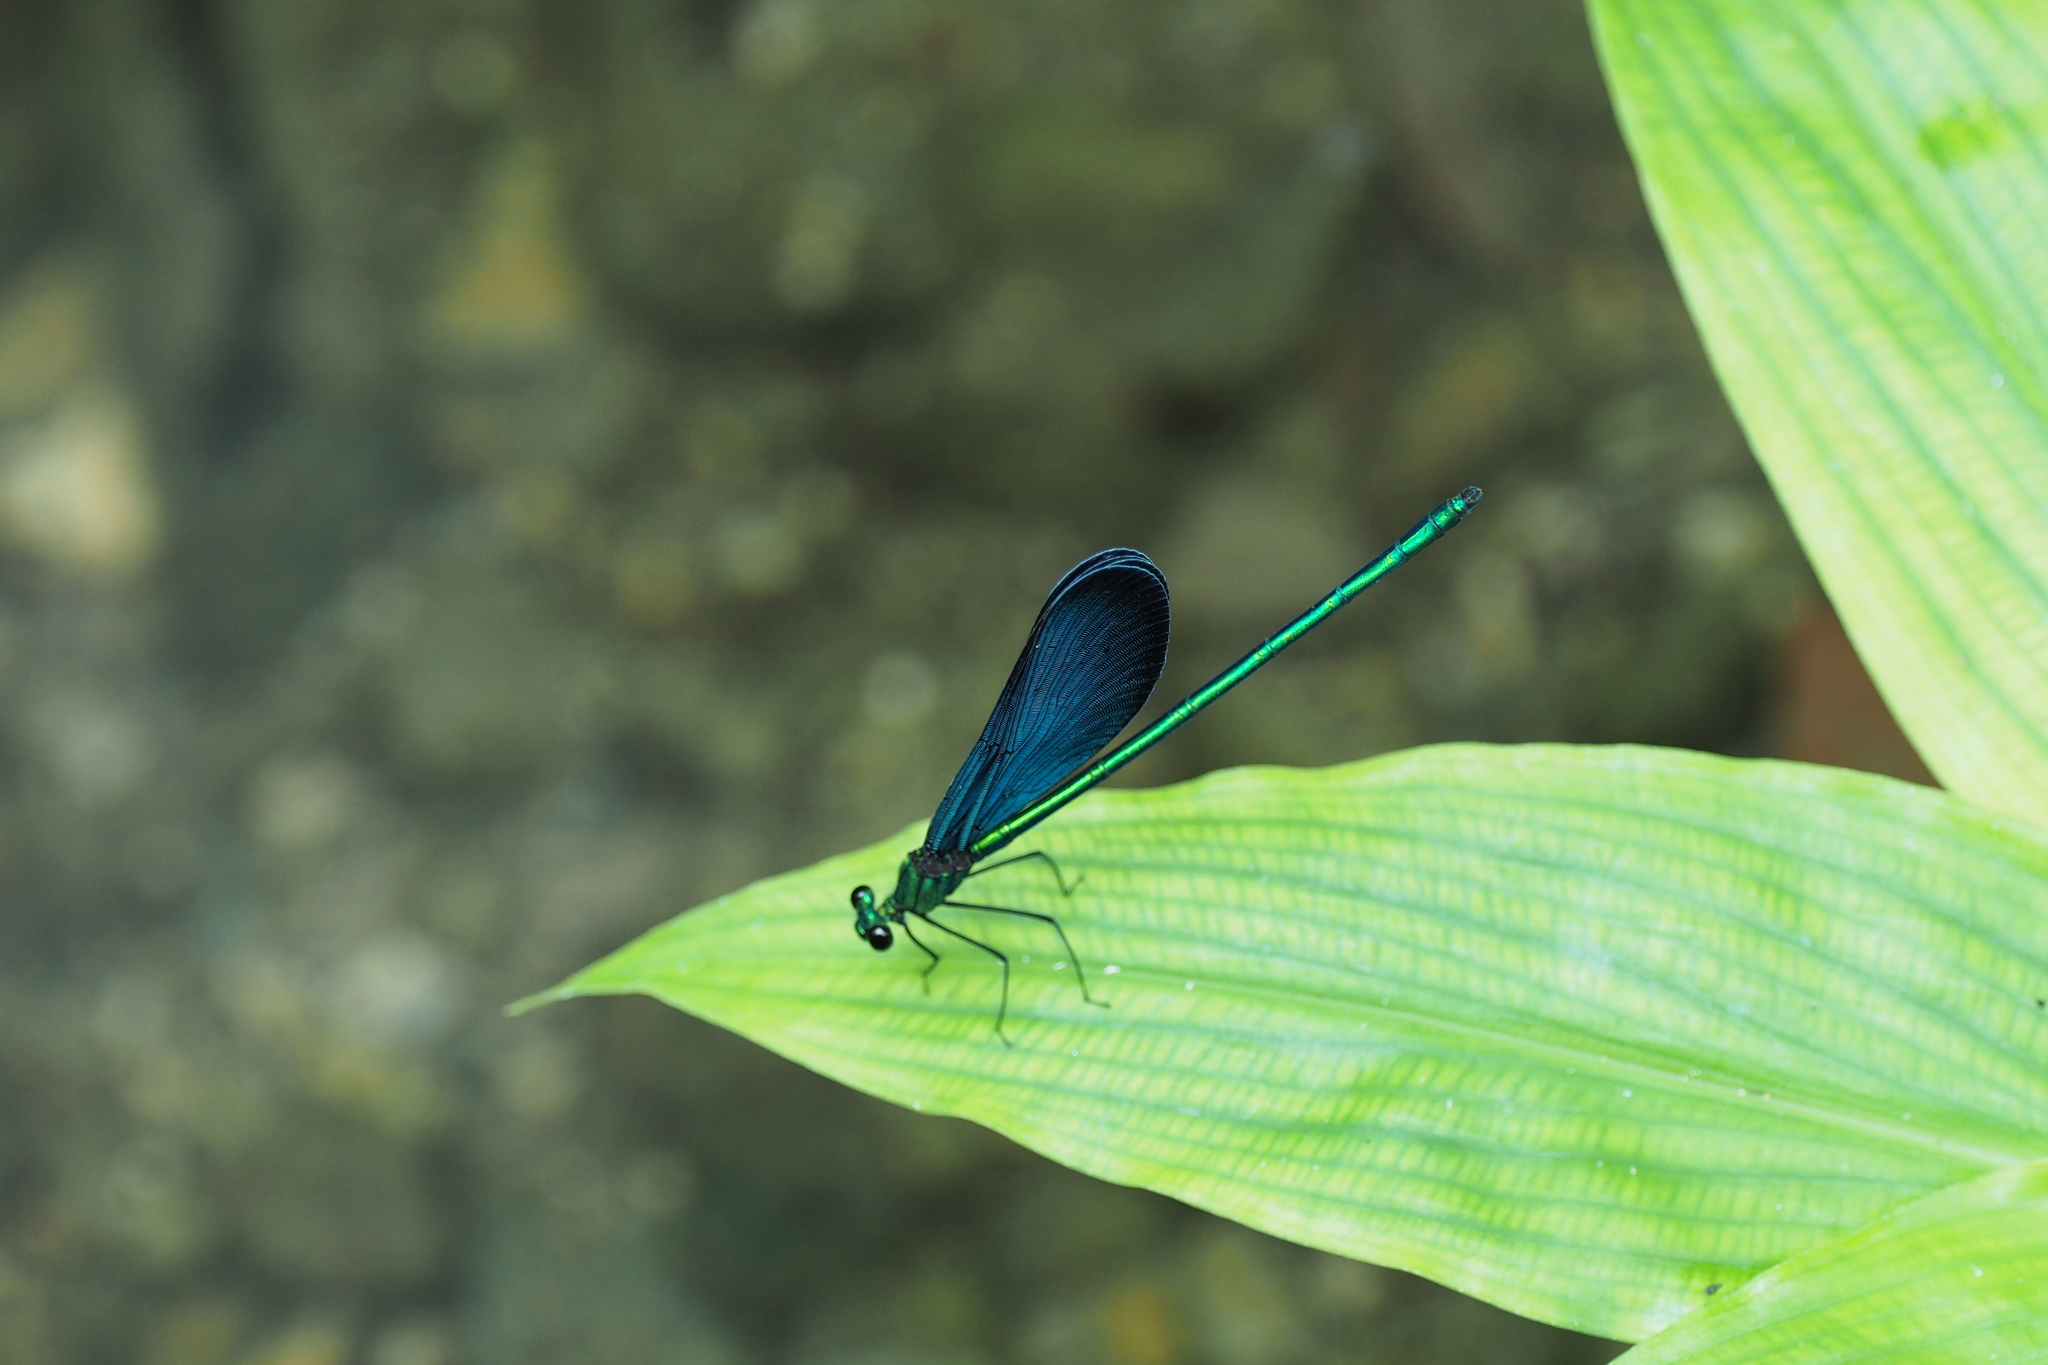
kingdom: Animalia
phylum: Arthropoda
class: Insecta
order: Odonata
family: Calopterygidae
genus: Matrona
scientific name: Matrona cyanoptera
